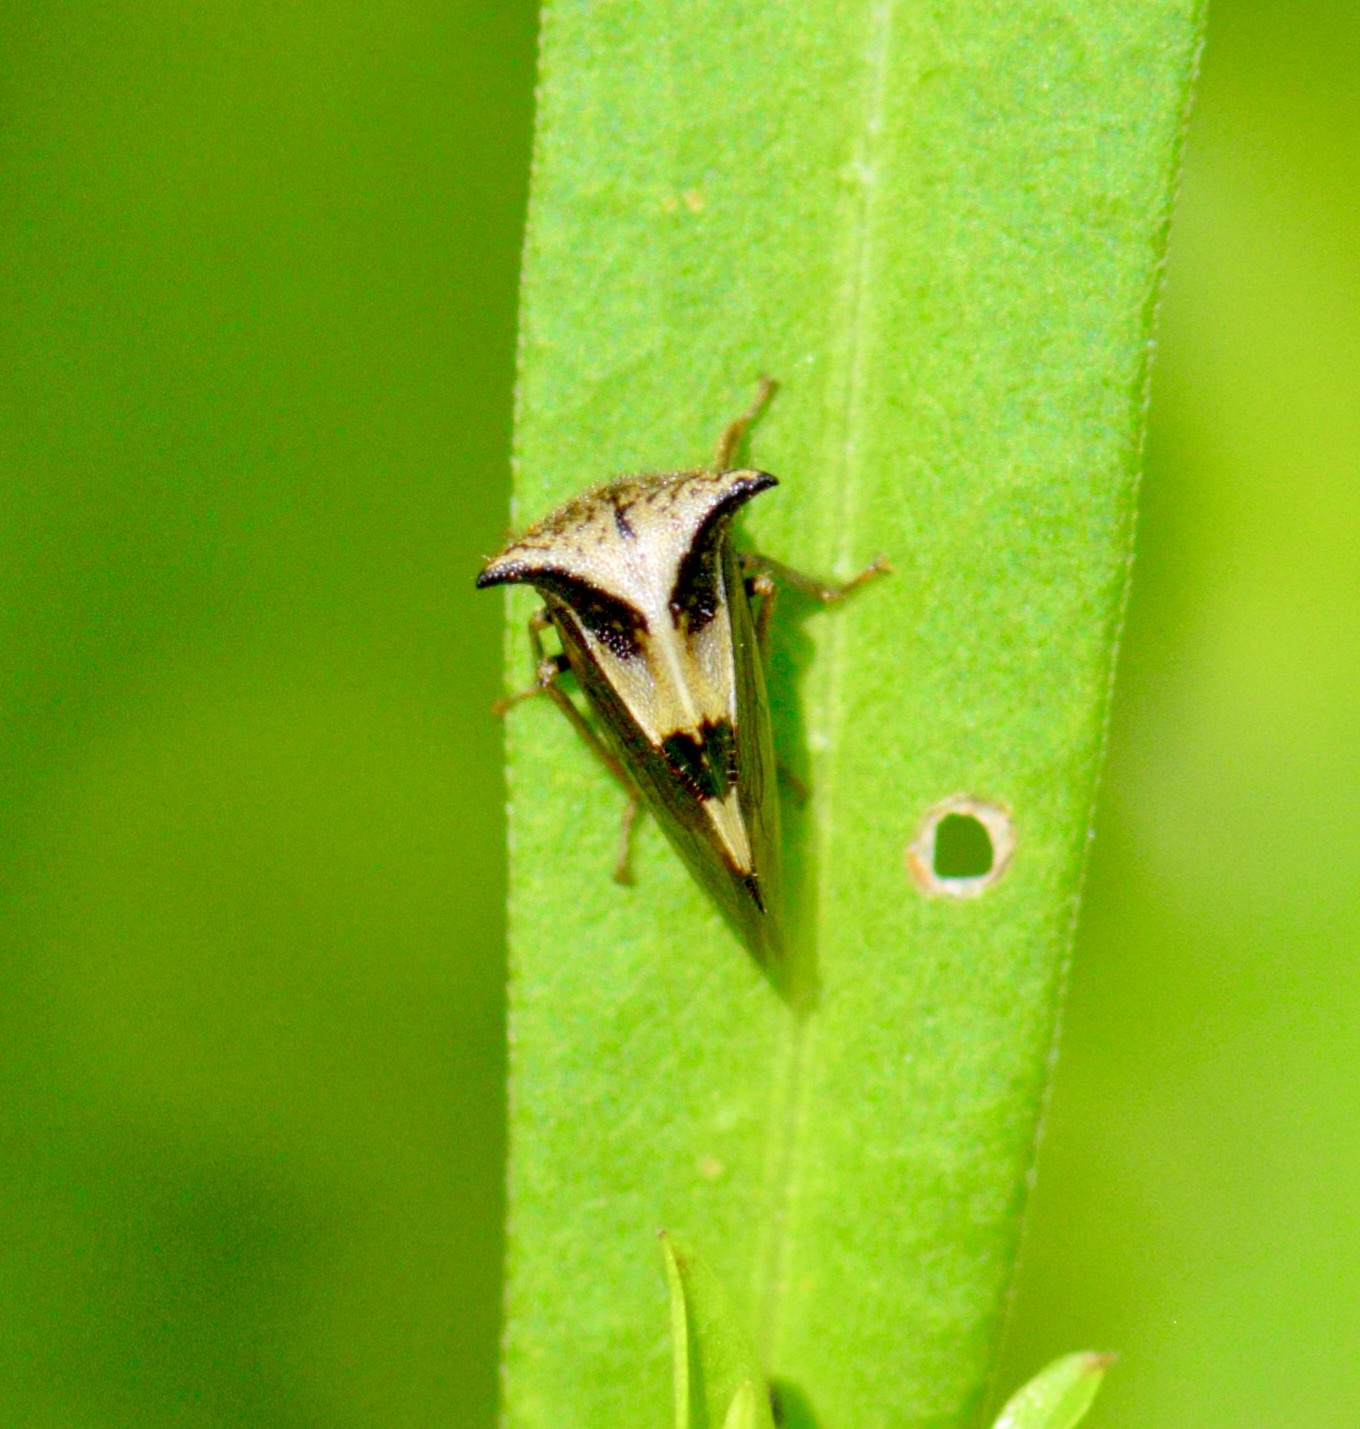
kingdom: Animalia
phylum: Arthropoda
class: Insecta
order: Hemiptera
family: Membracidae
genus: Stictocephala
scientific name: Stictocephala diceros
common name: Two-horned treehopper
